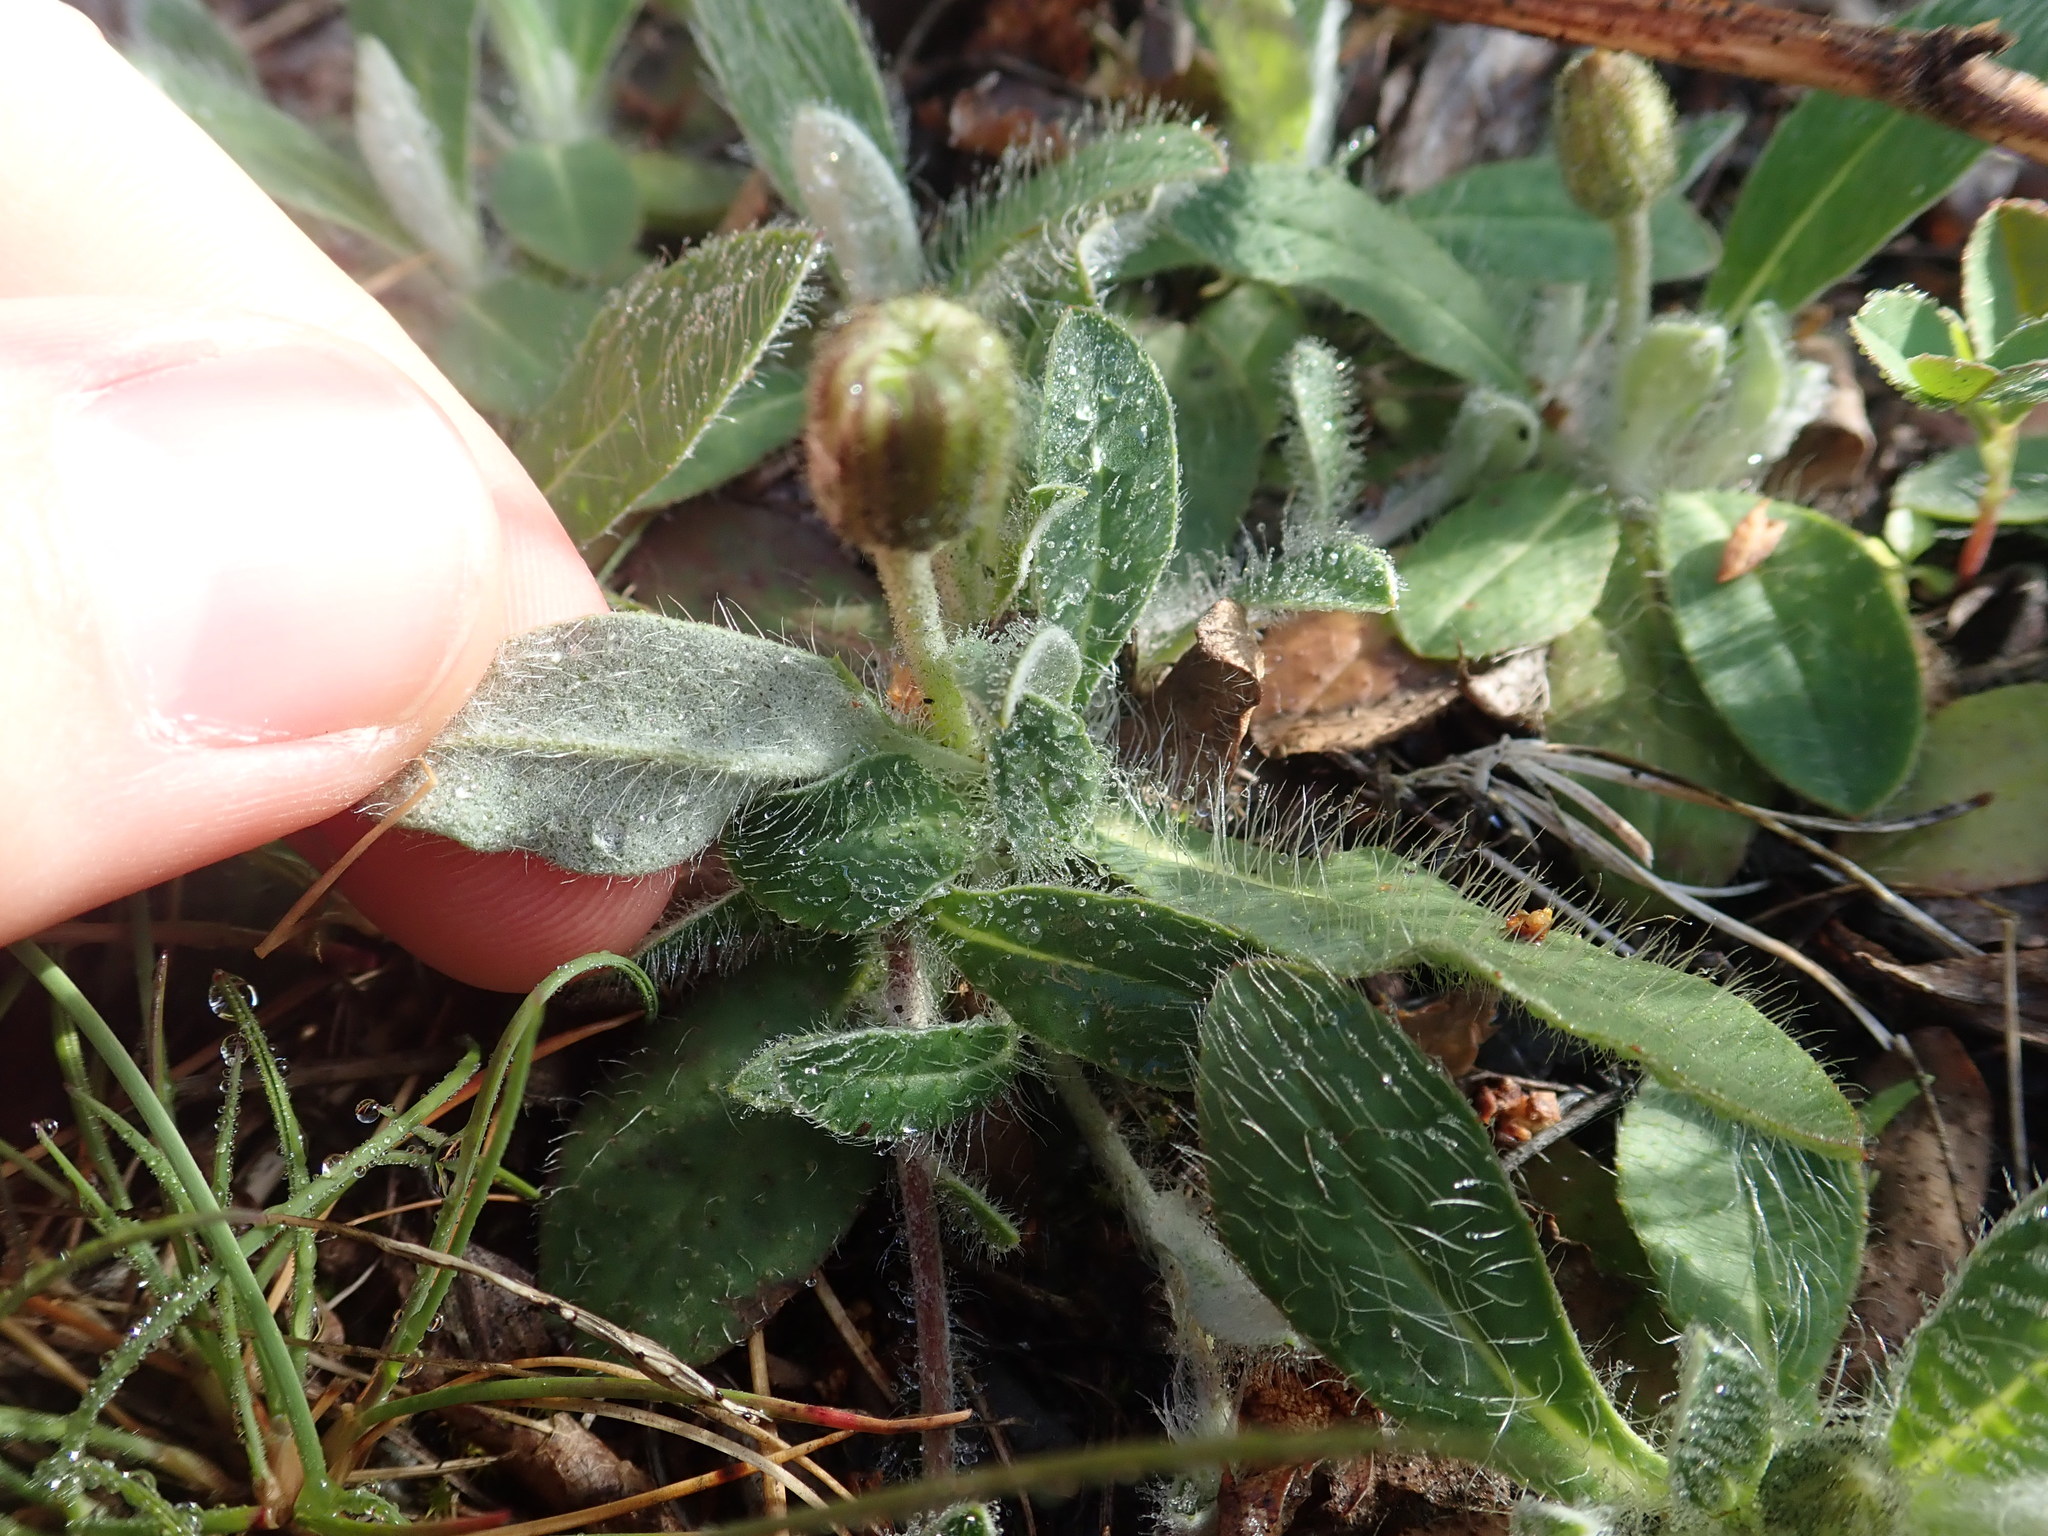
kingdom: Plantae
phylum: Tracheophyta
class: Magnoliopsida
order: Asterales
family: Asteraceae
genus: Pilosella
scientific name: Pilosella officinarum
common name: Mouse-ear hawkweed
